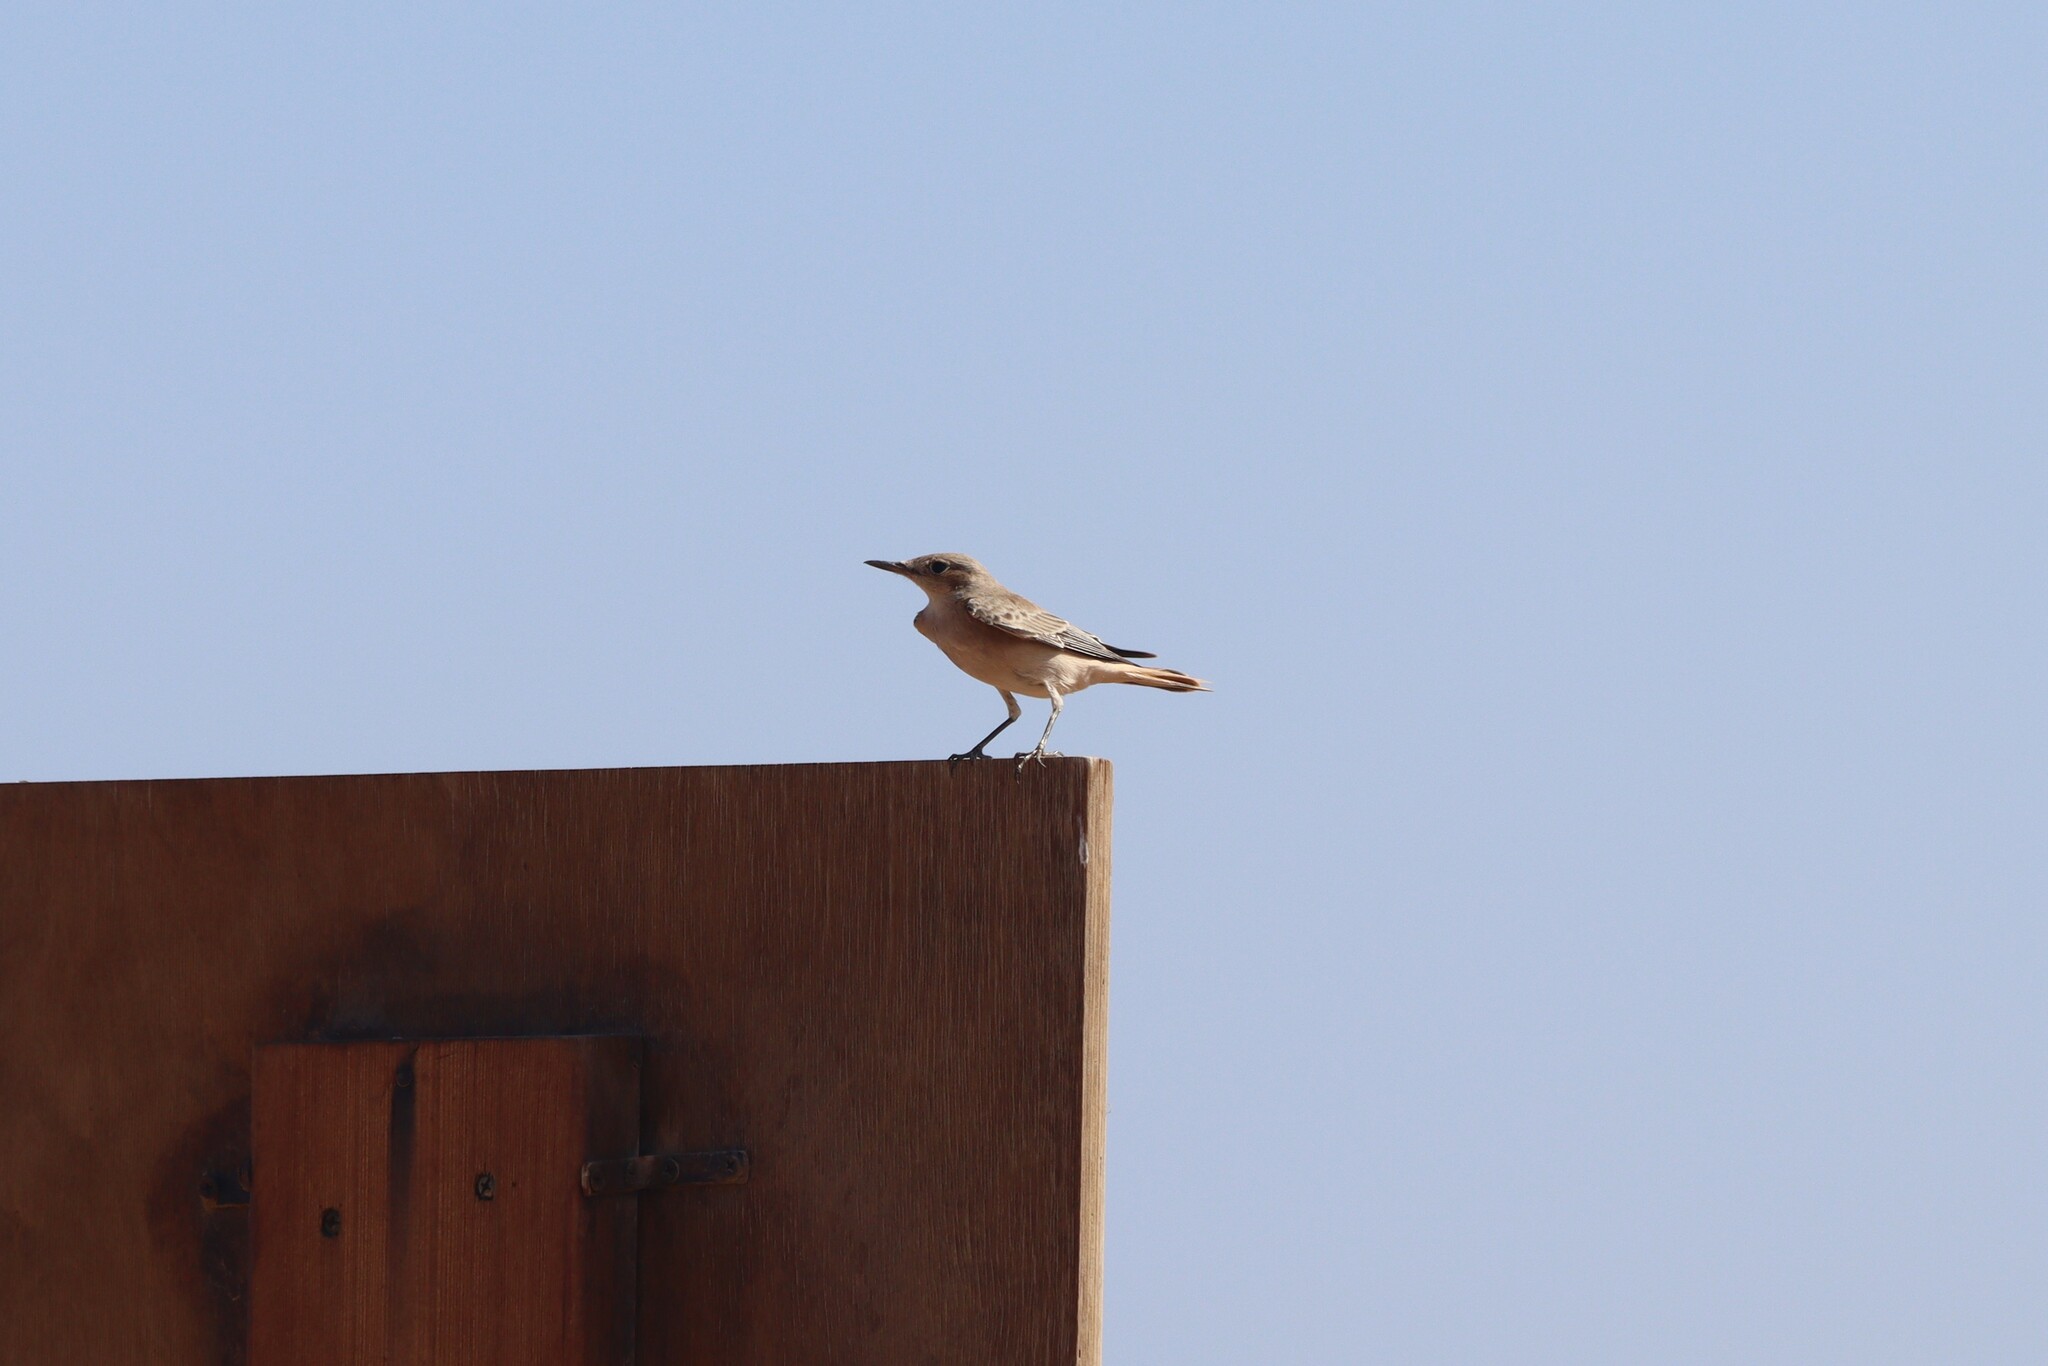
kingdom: Animalia
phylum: Chordata
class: Aves
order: Passeriformes
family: Muscicapidae
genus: Oenanthe
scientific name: Oenanthe monacha
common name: Hooded wheatear
